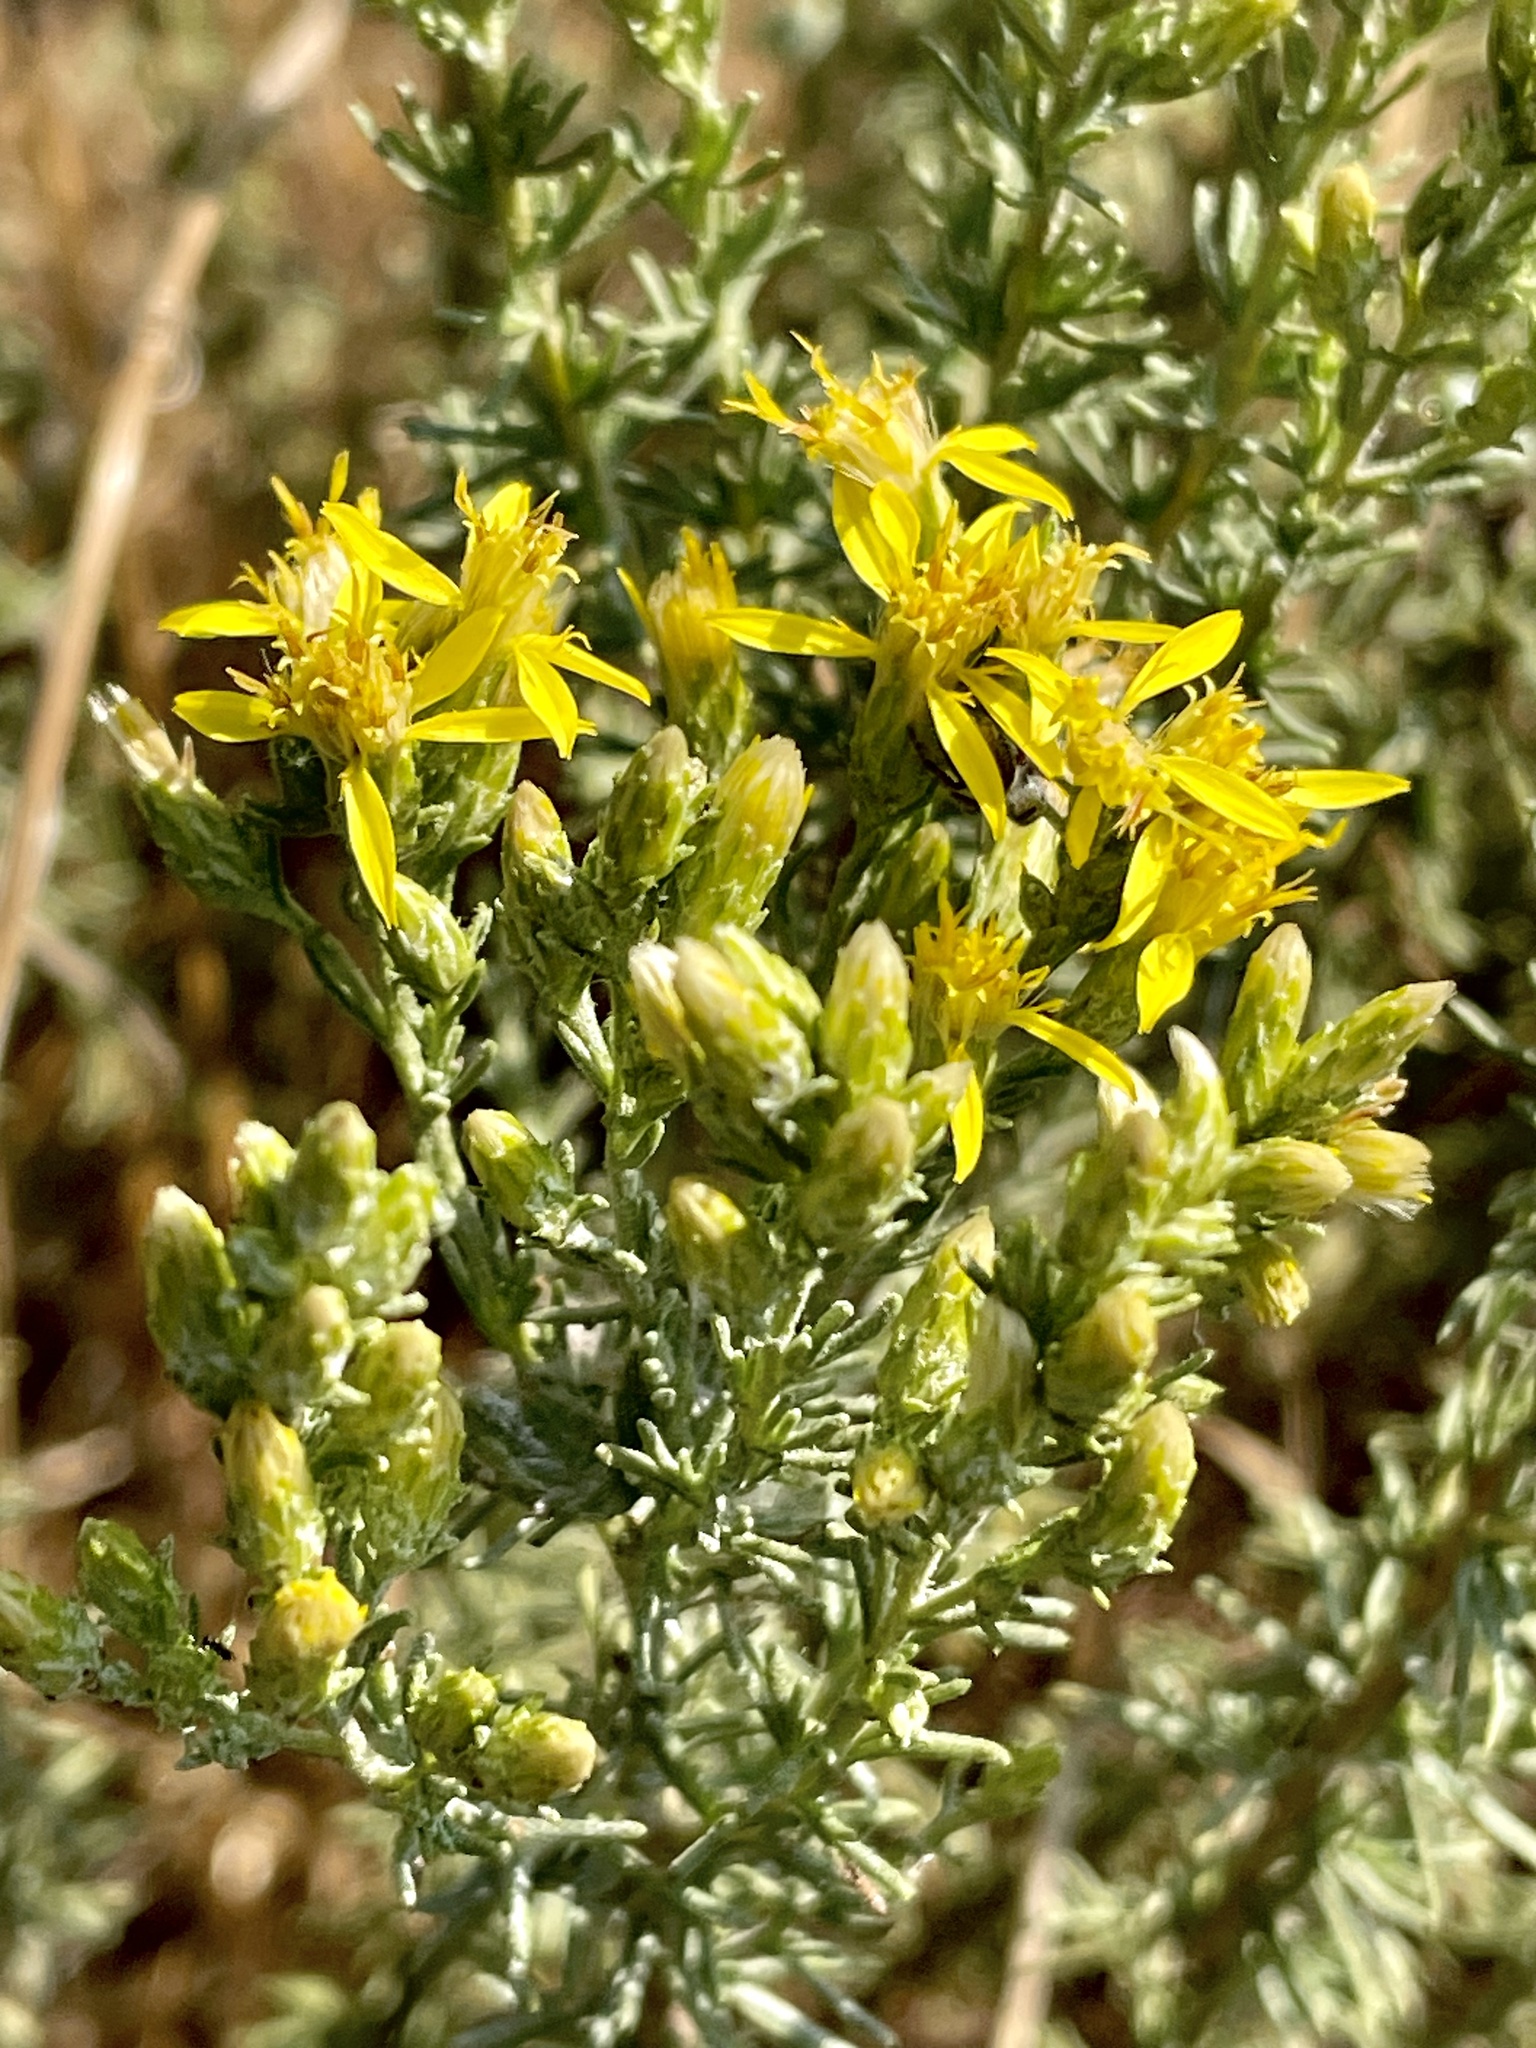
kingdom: Plantae
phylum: Tracheophyta
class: Magnoliopsida
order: Asterales
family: Asteraceae
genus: Ericameria
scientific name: Ericameria ericoides
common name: California goldenbush
